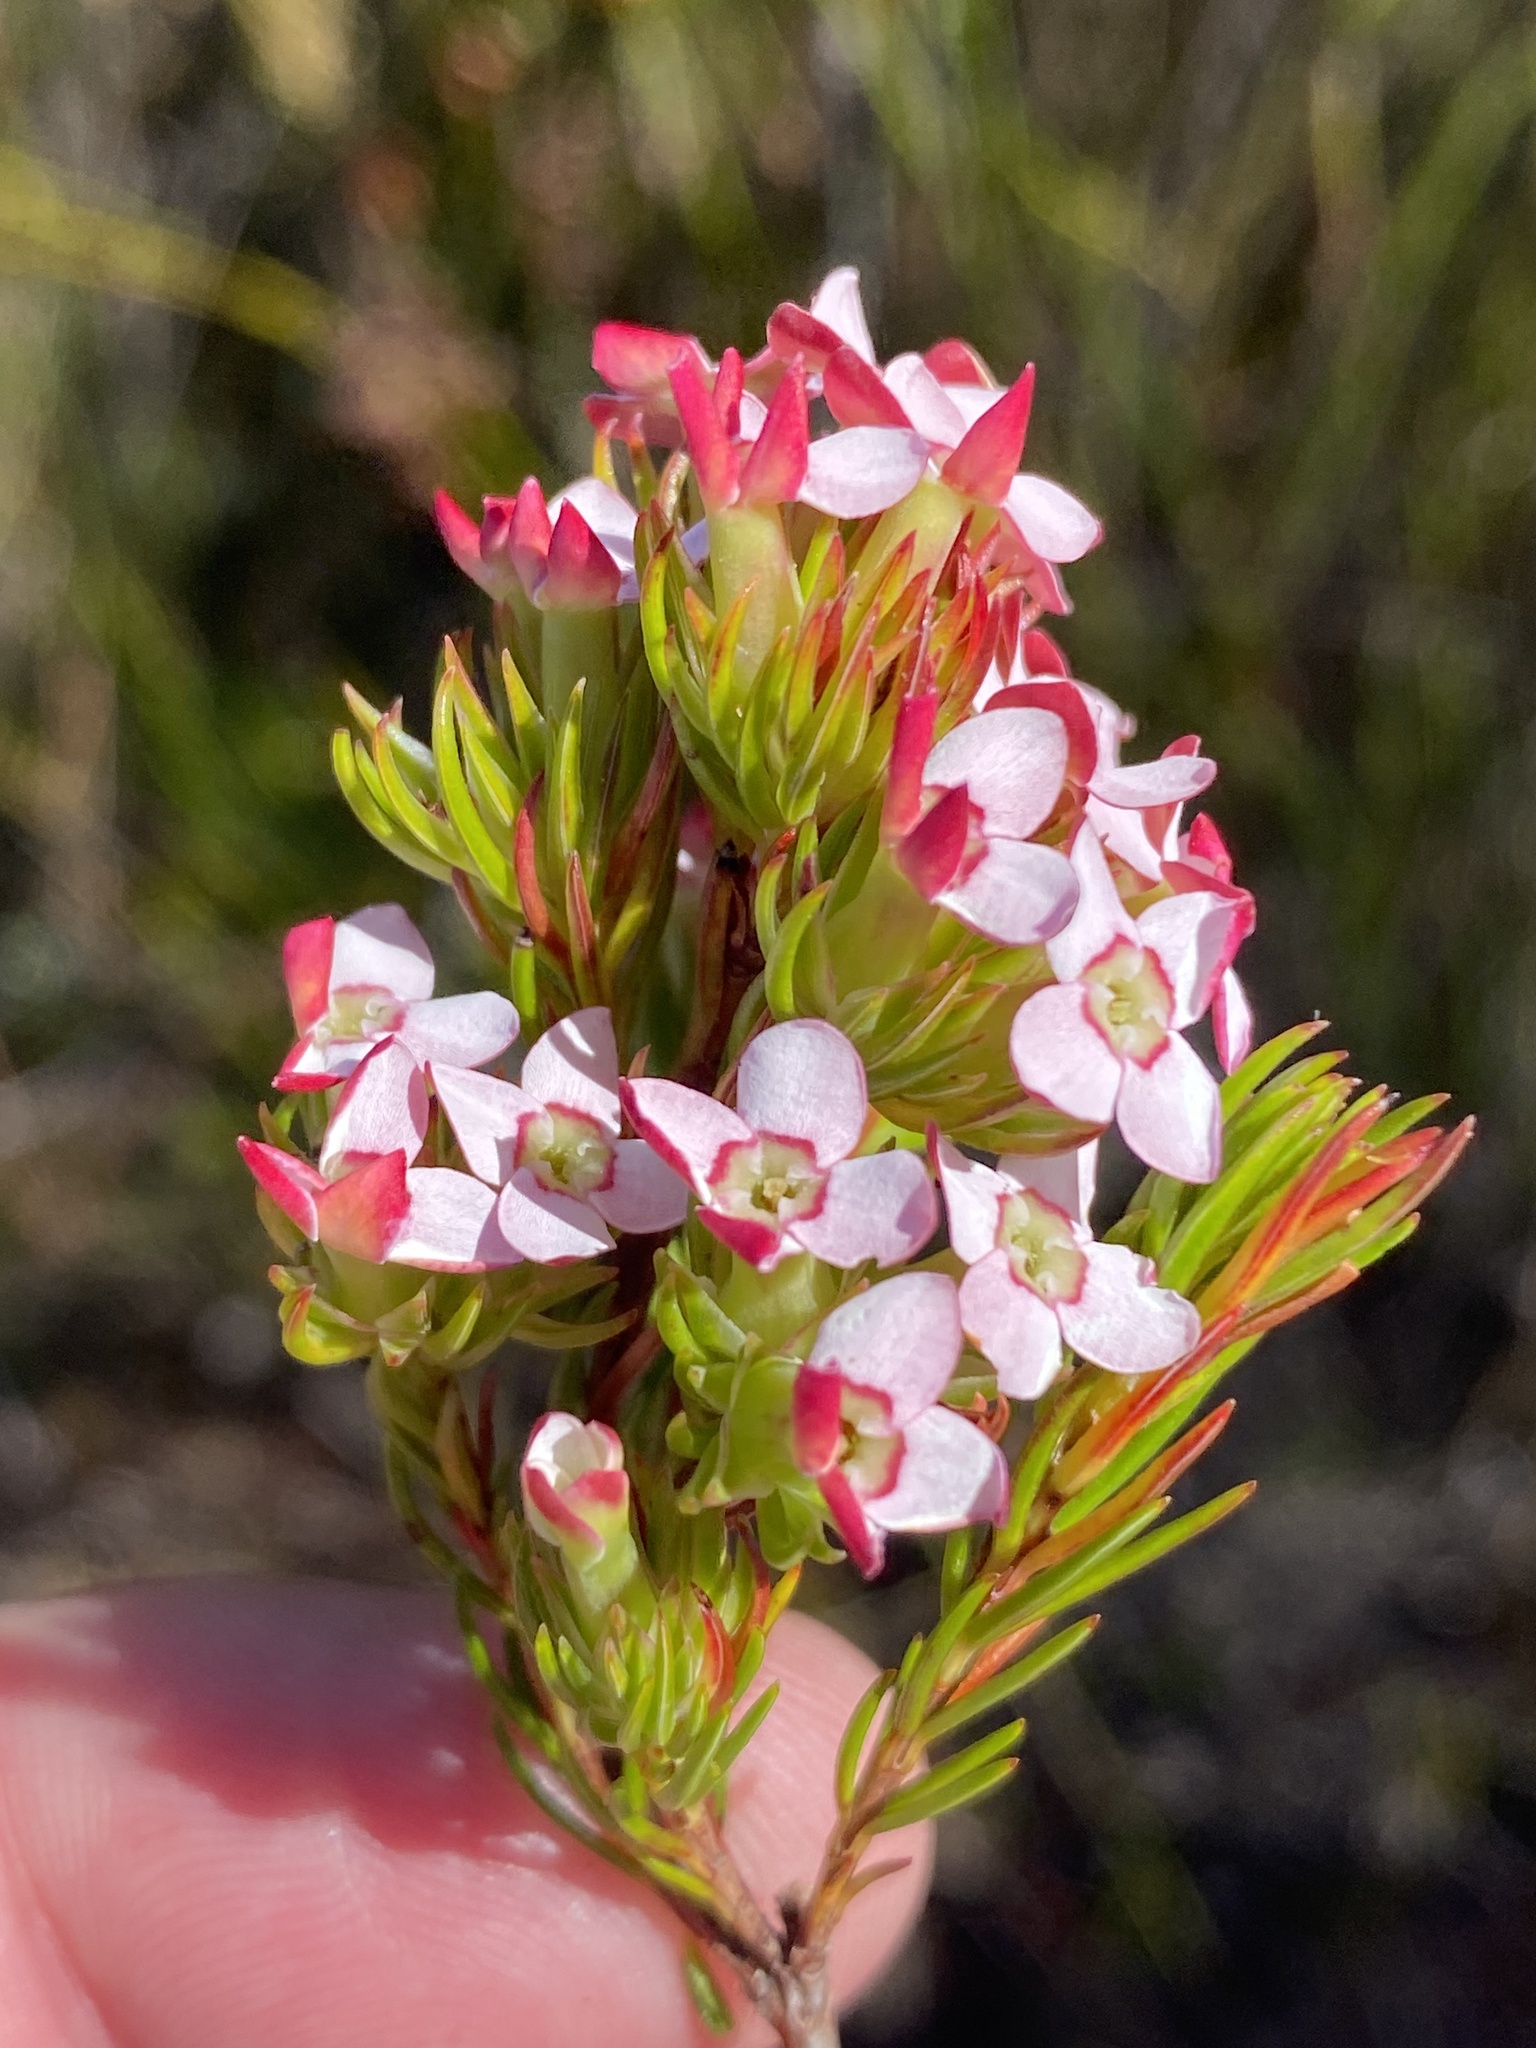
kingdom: Plantae
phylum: Tracheophyta
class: Magnoliopsida
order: Ericales
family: Ericaceae
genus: Erica
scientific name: Erica fastigiata
